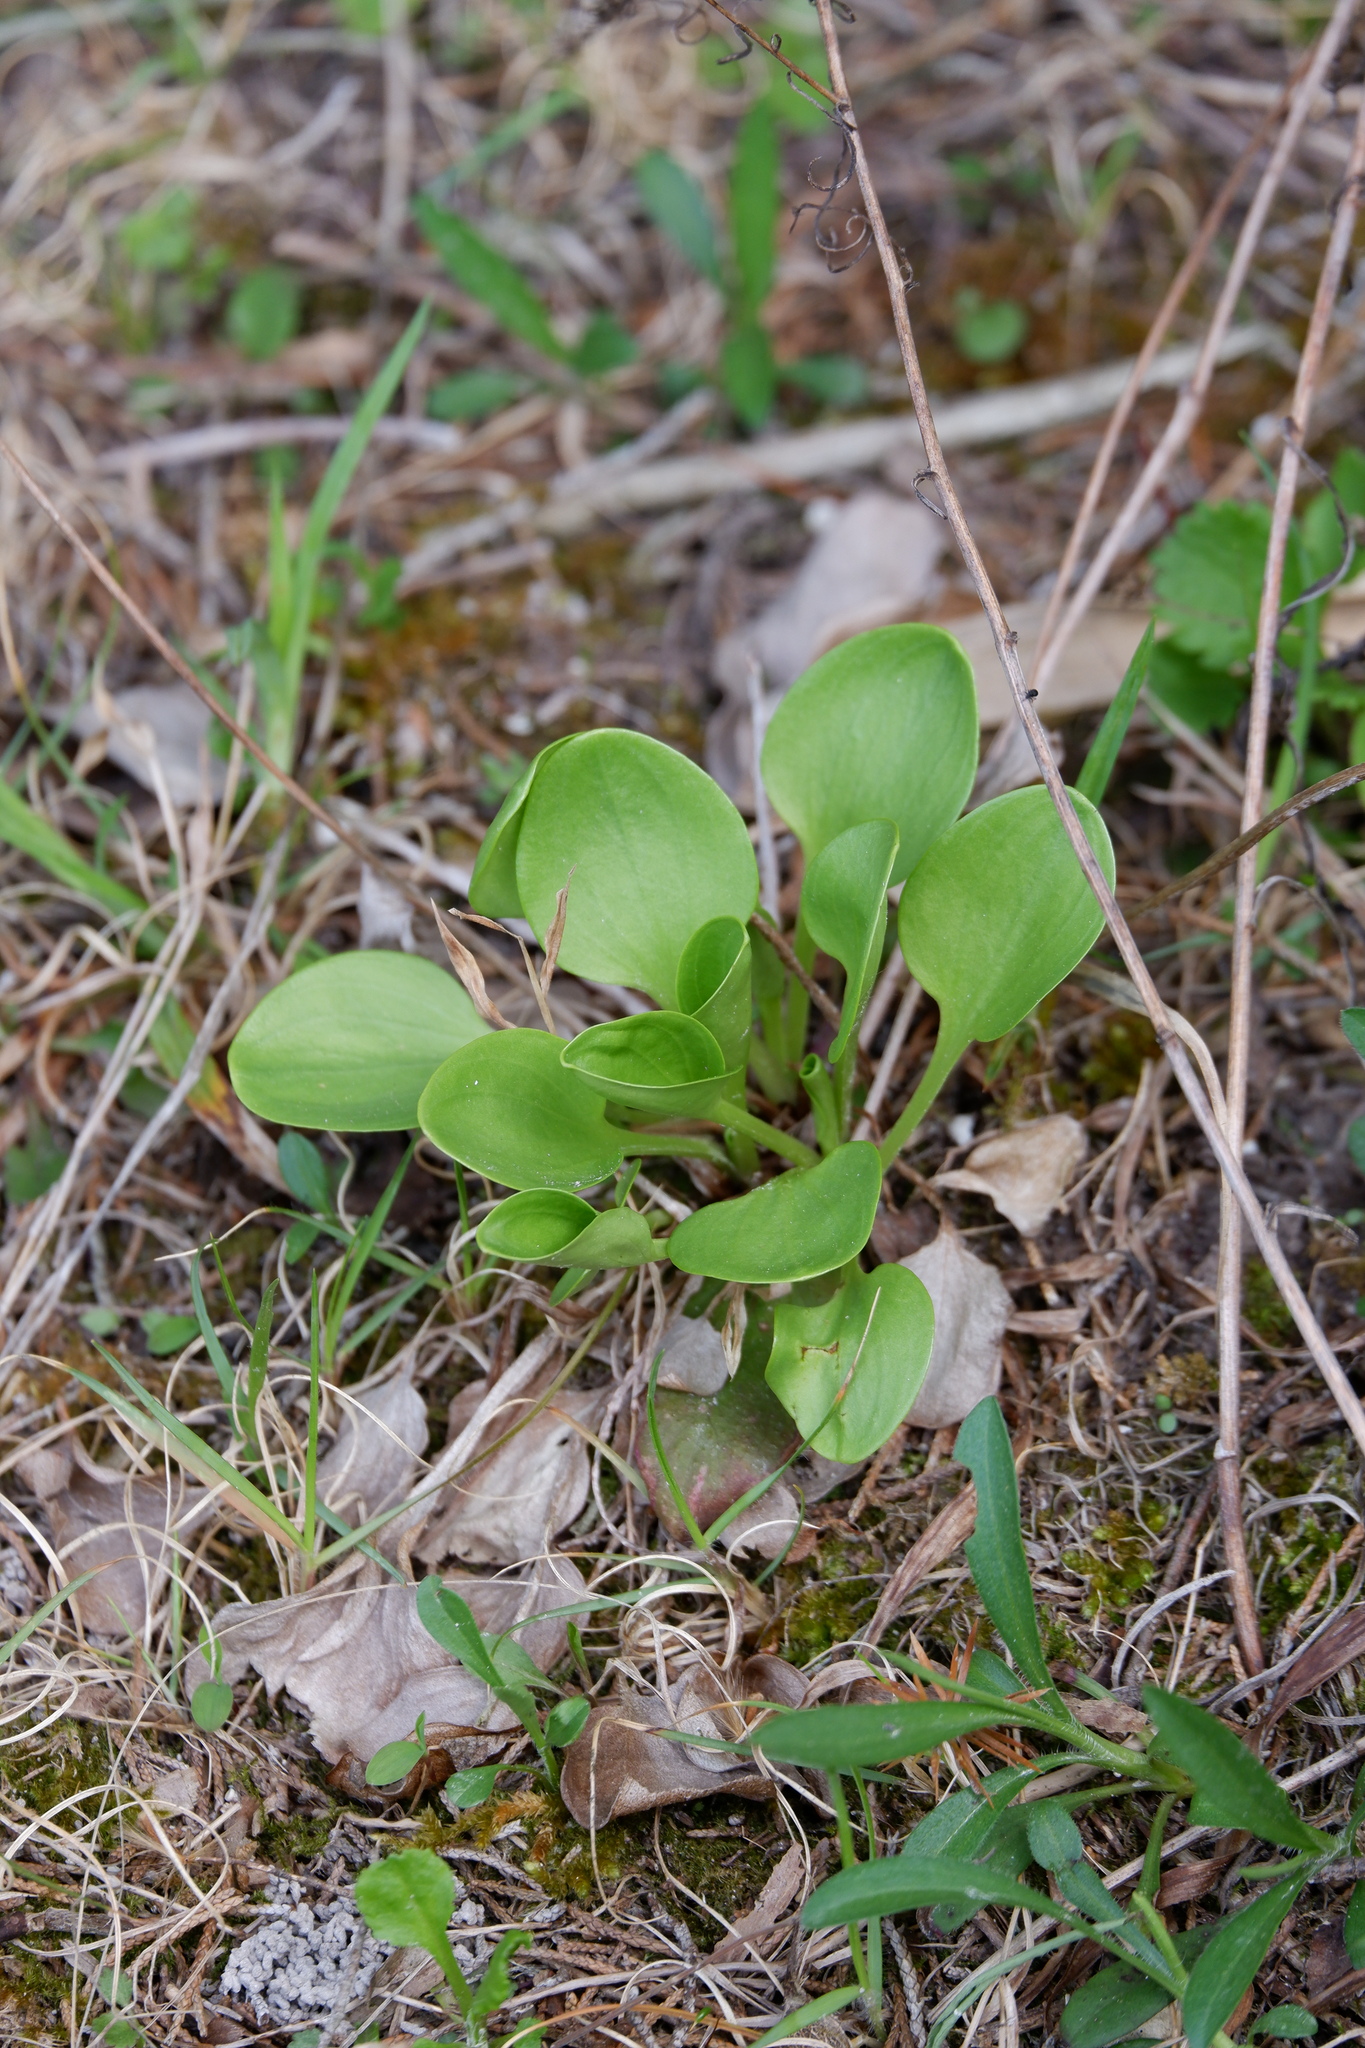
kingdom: Plantae
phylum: Tracheophyta
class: Magnoliopsida
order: Celastrales
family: Parnassiaceae
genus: Parnassia
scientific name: Parnassia glauca
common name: American grass-of-parnassus
